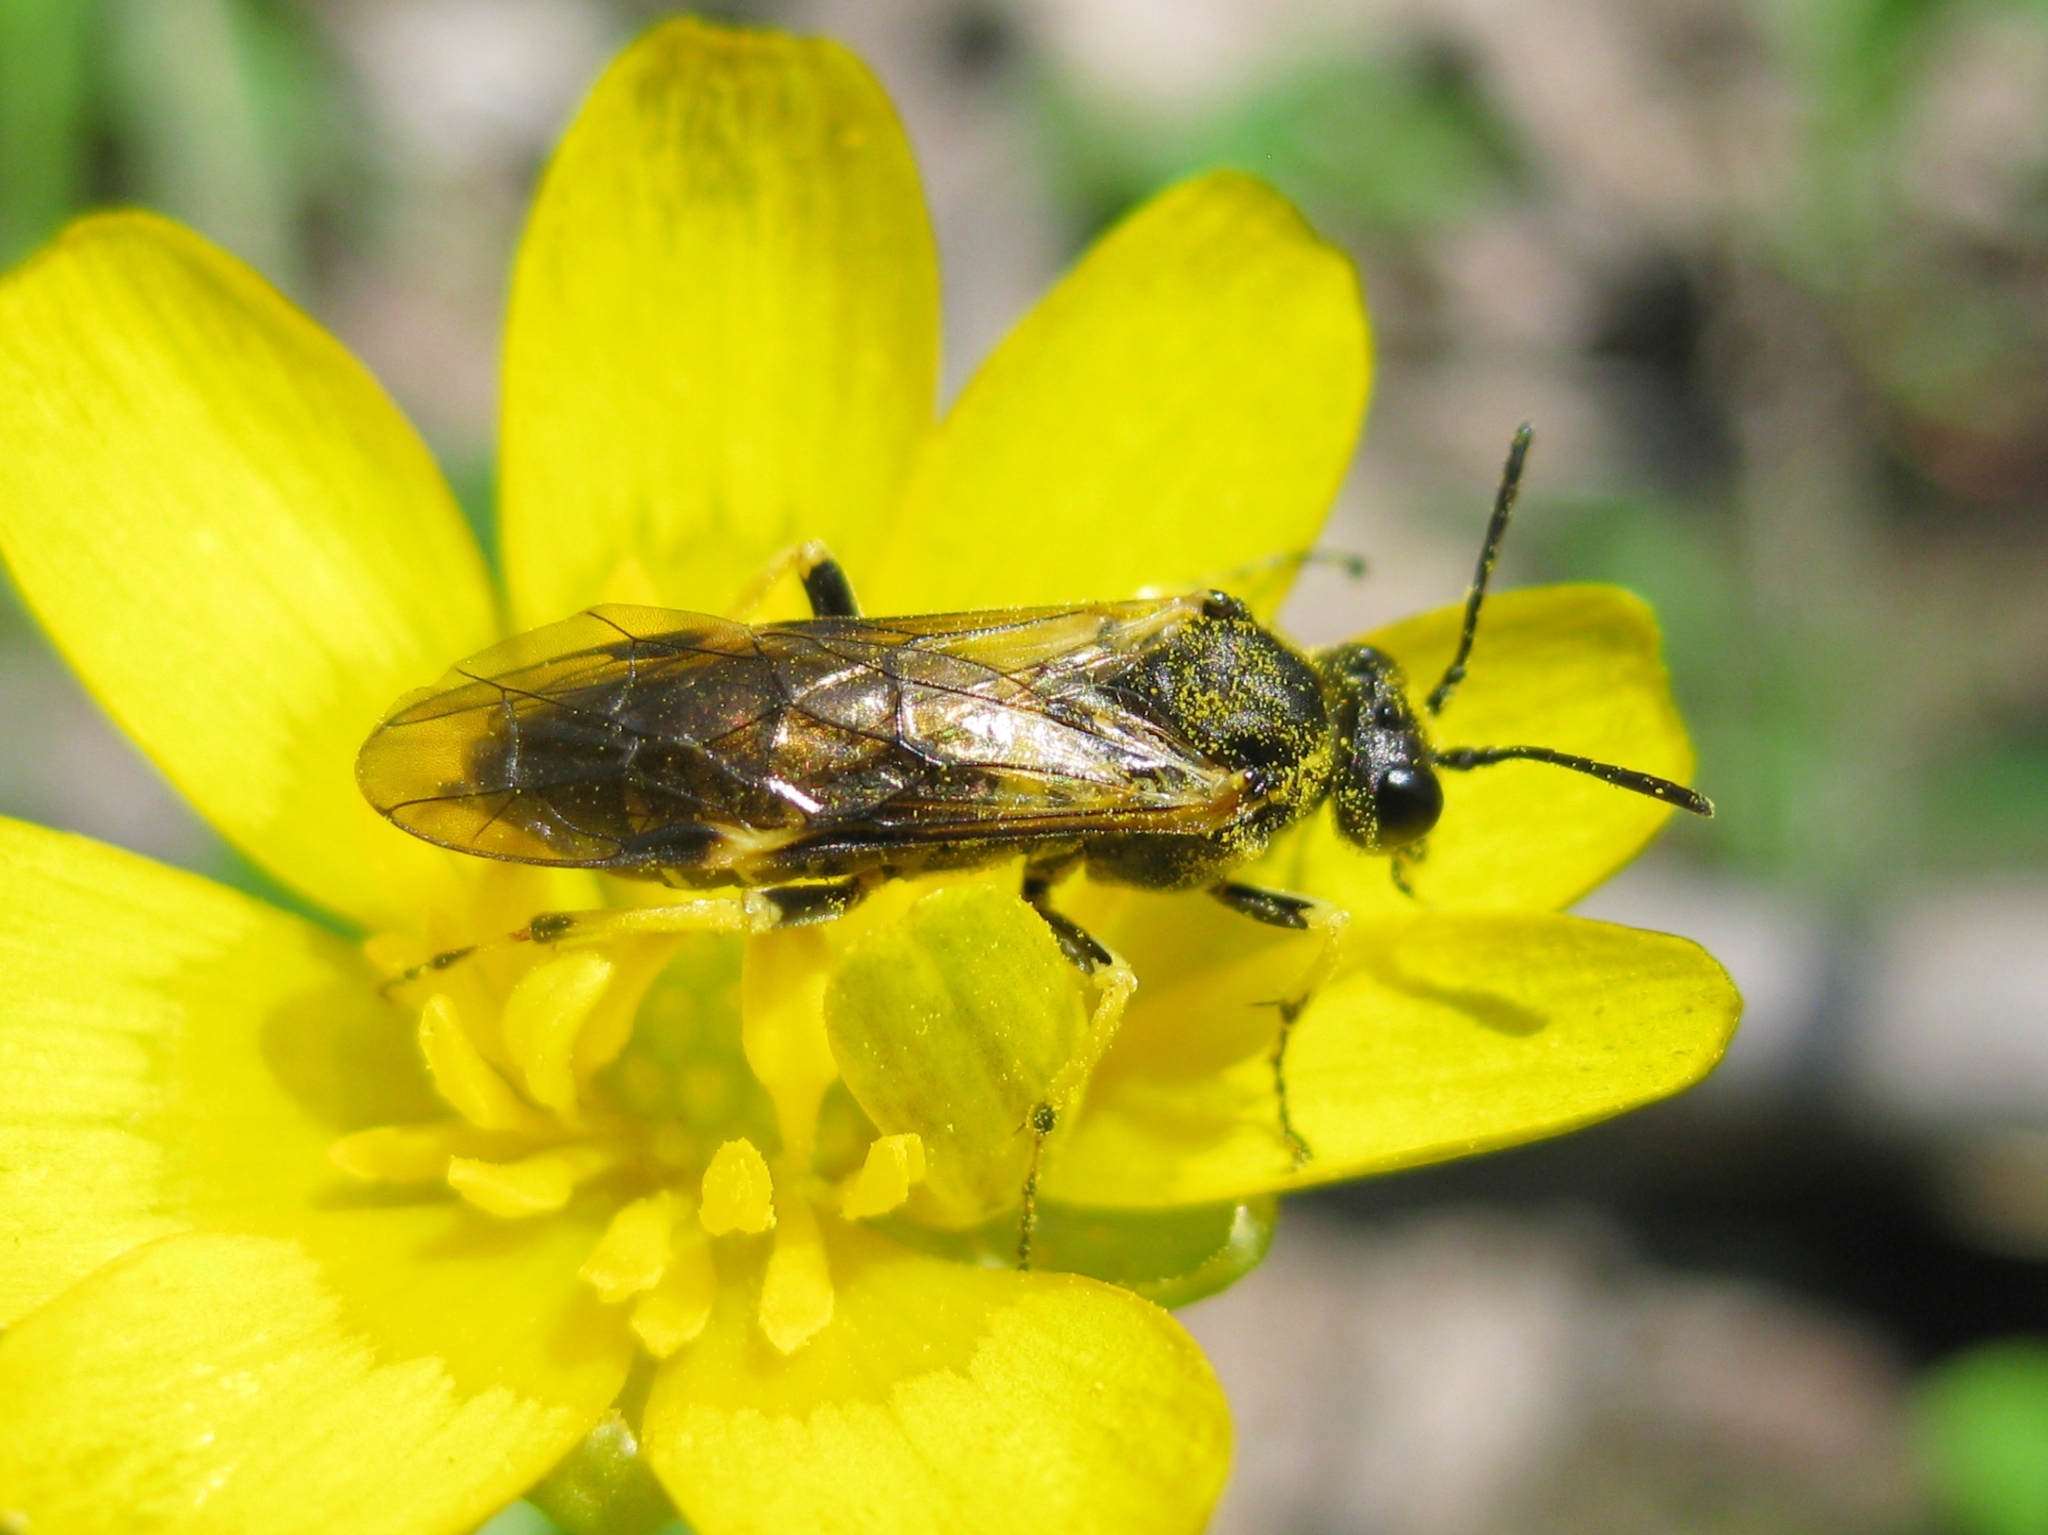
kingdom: Animalia
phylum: Arthropoda
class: Insecta
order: Hymenoptera
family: Tenthredinidae
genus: Tenthredo
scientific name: Tenthredo longipes
